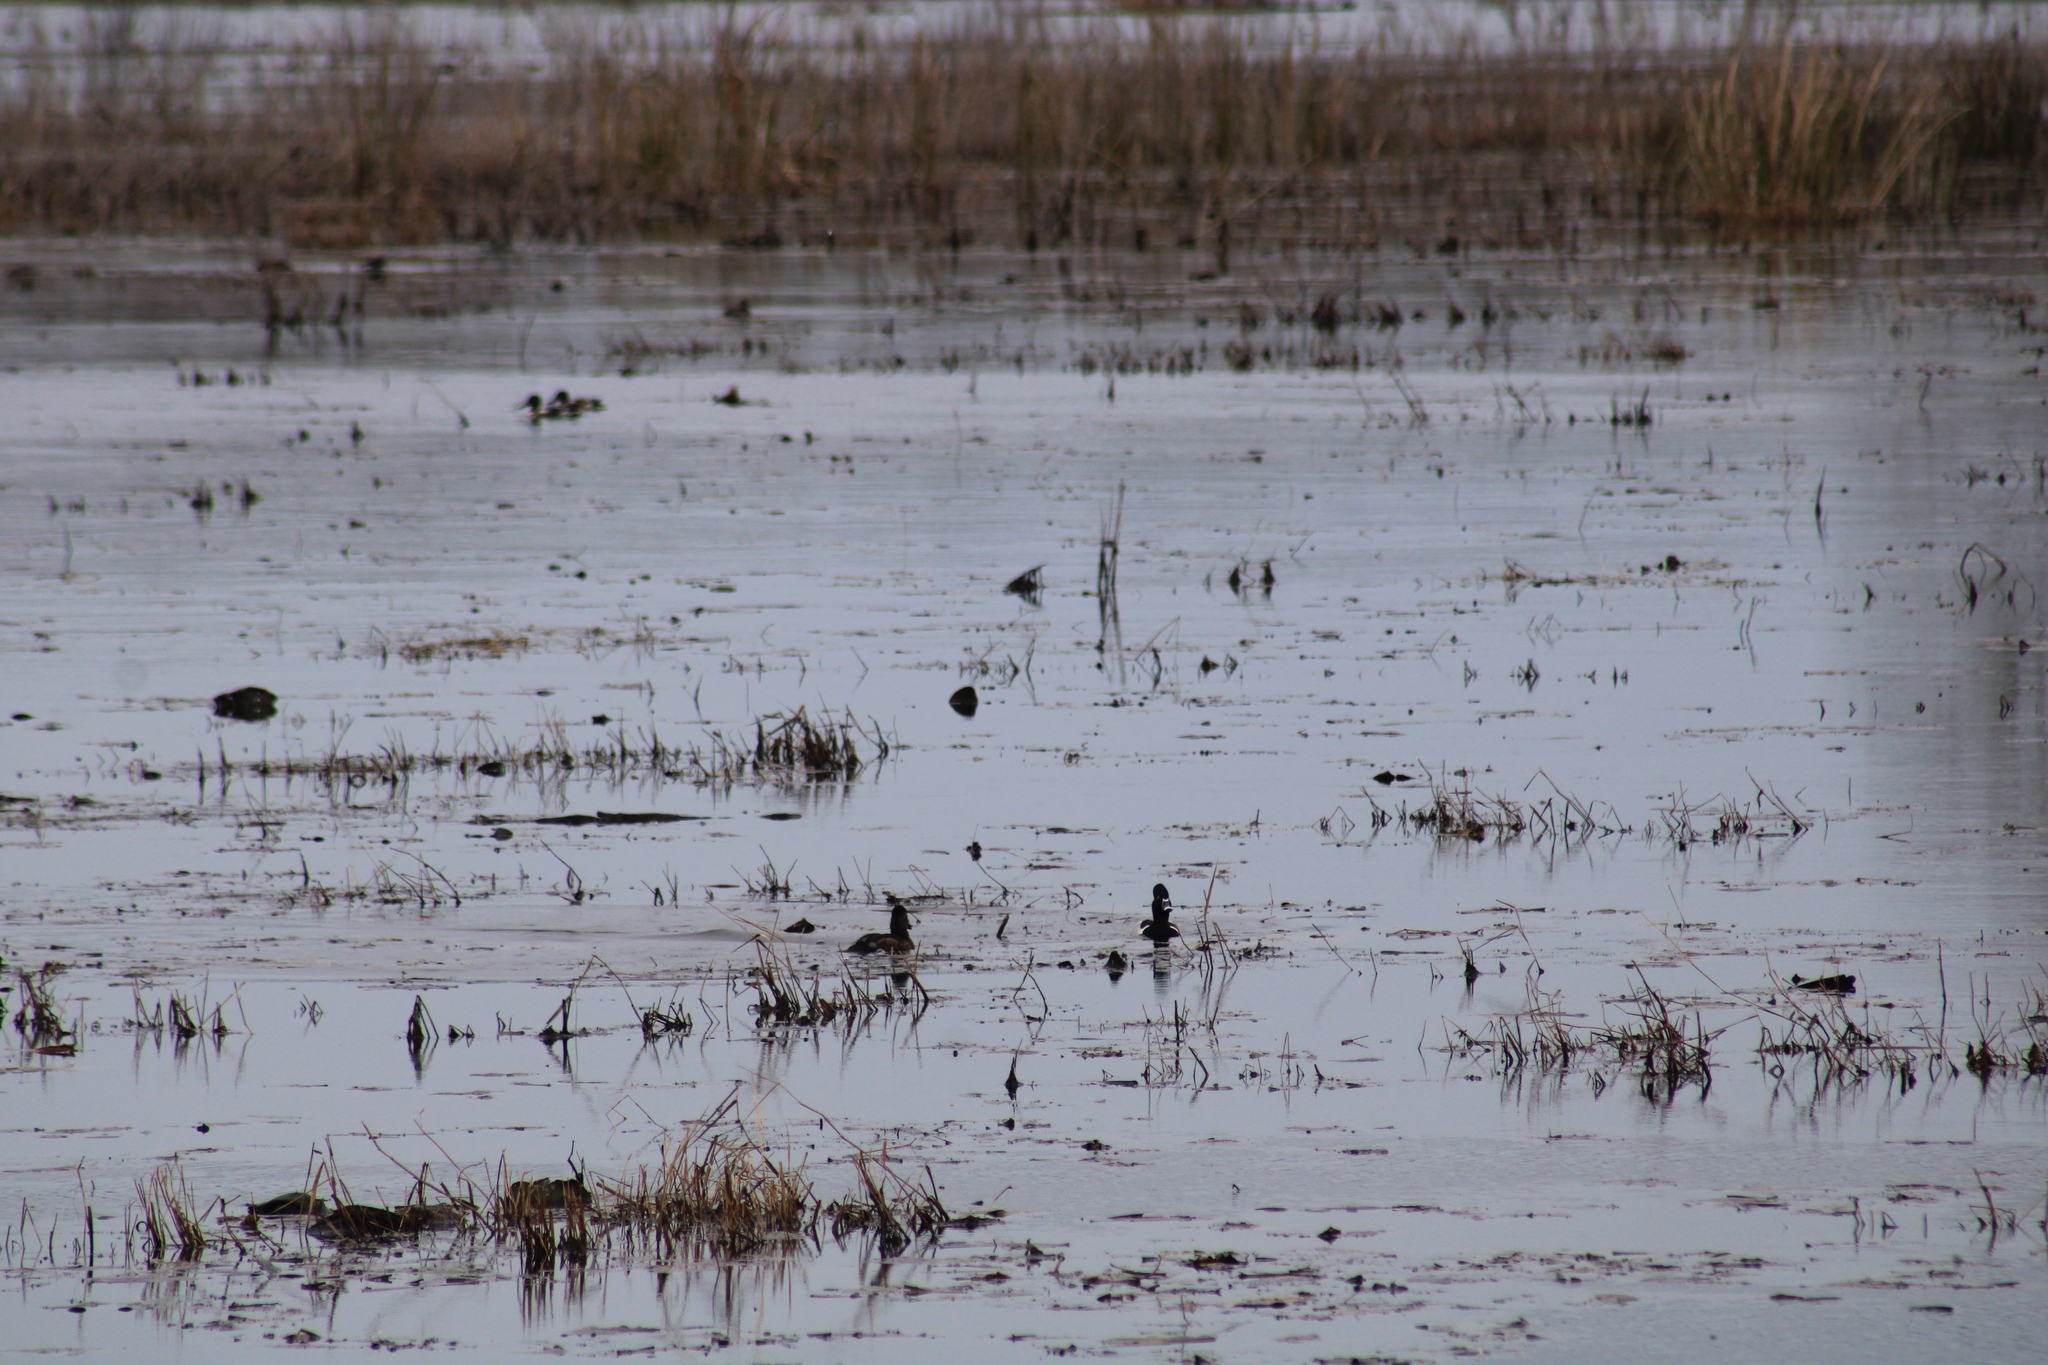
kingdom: Animalia
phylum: Chordata
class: Aves
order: Anseriformes
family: Anatidae
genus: Aythya
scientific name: Aythya collaris
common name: Ring-necked duck
